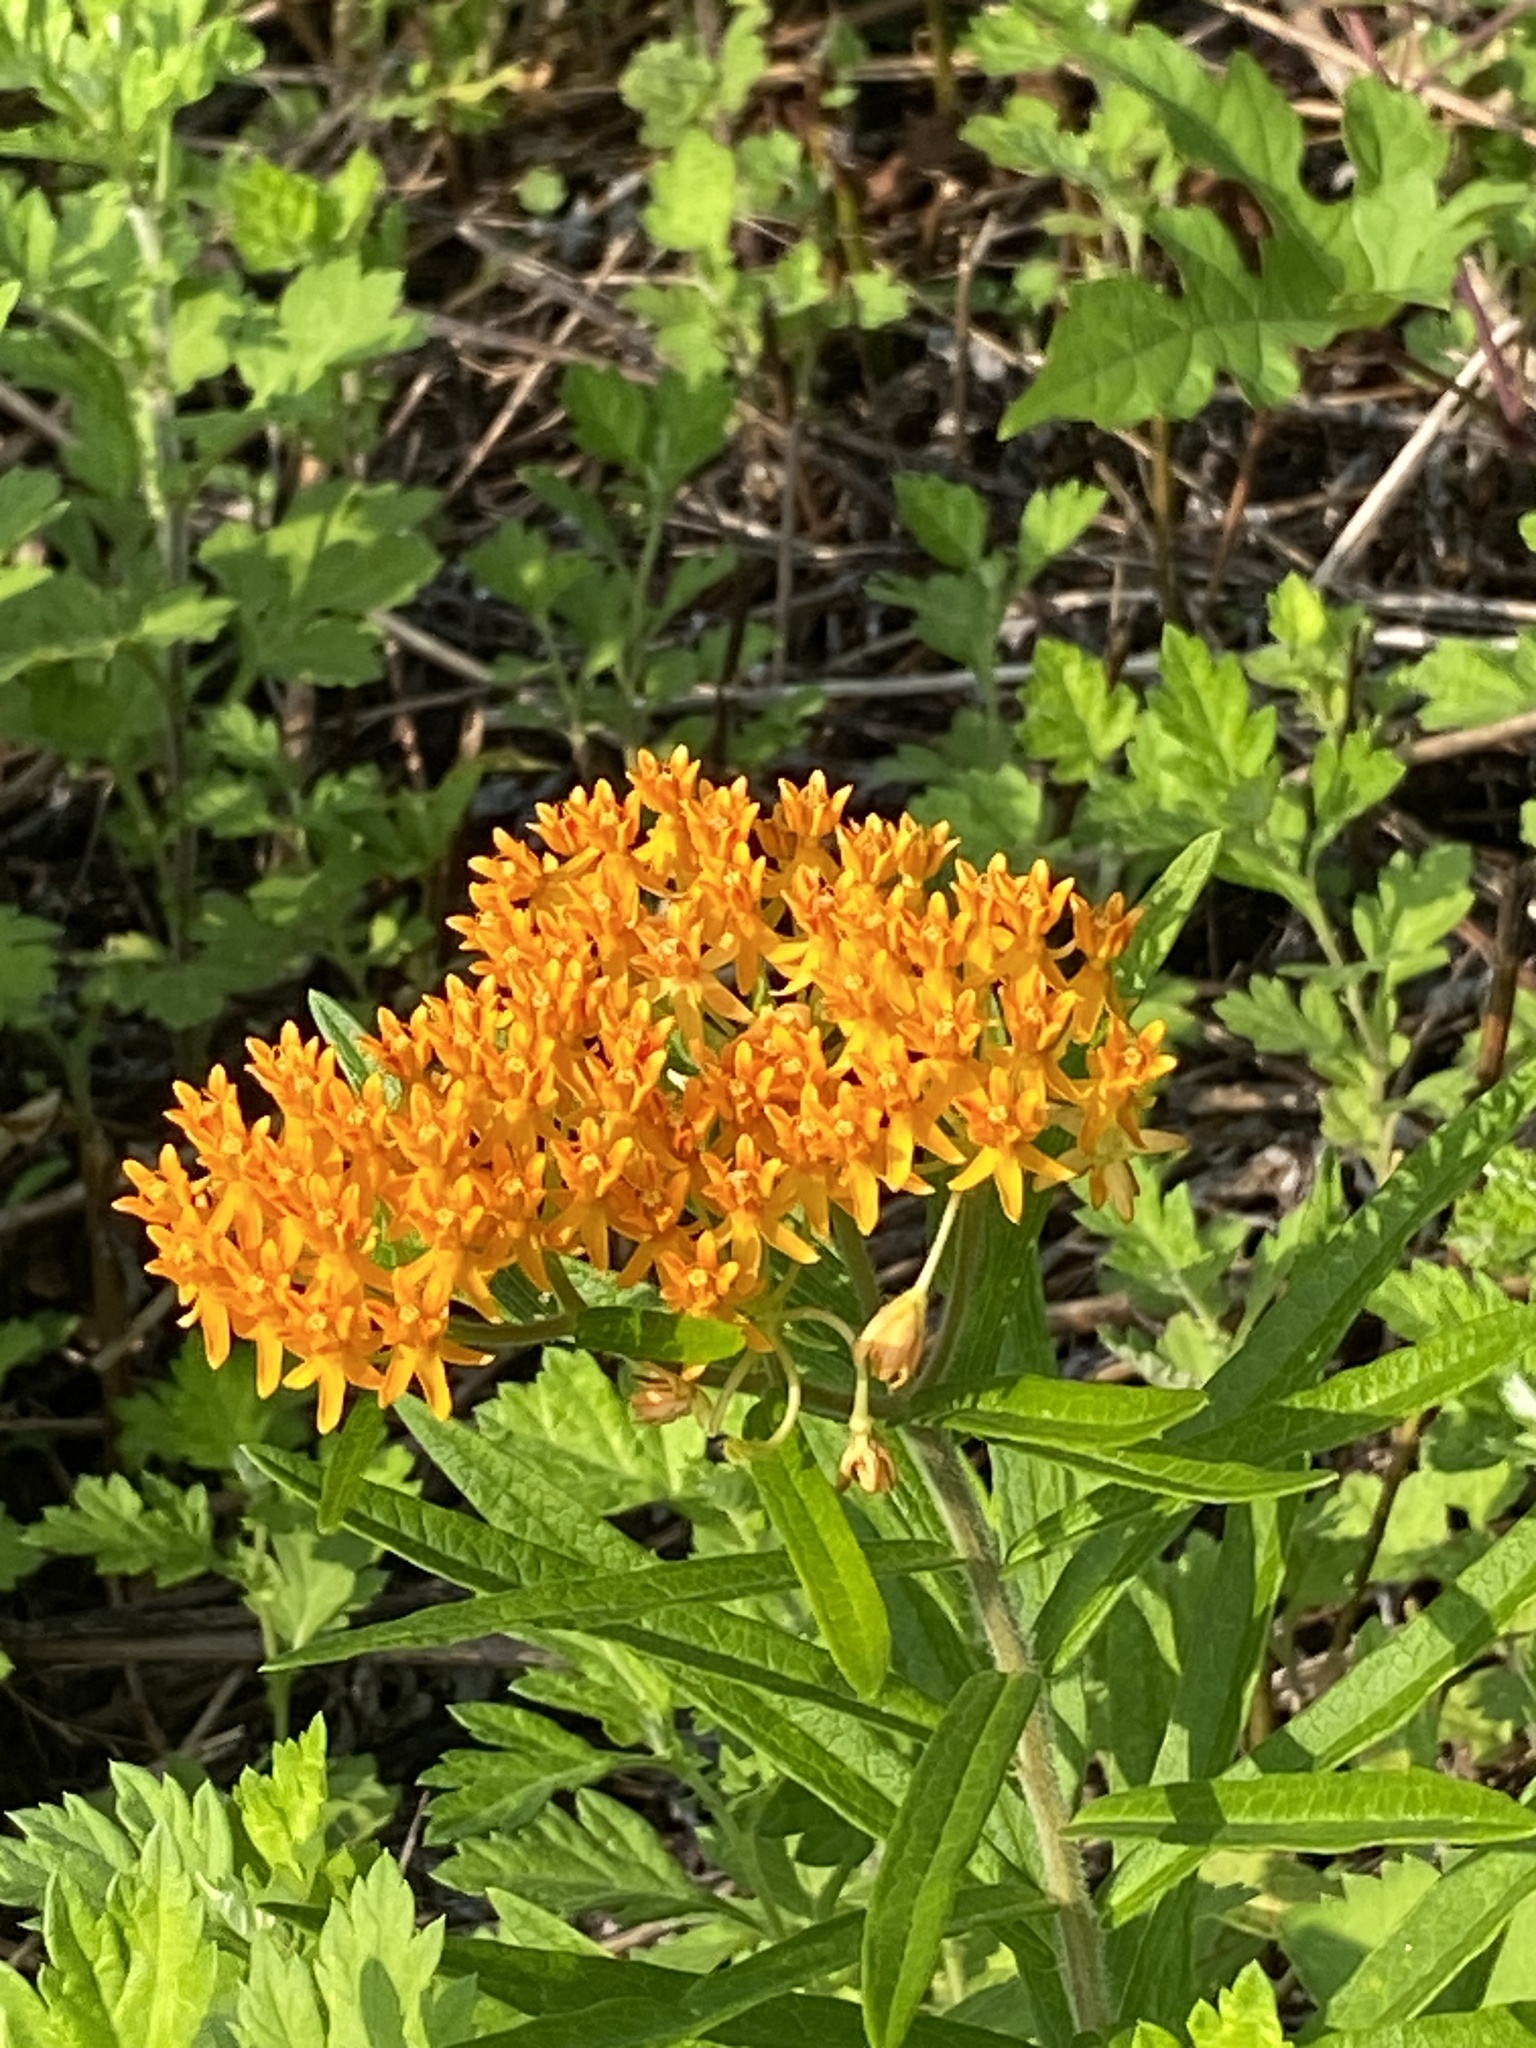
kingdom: Plantae
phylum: Tracheophyta
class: Magnoliopsida
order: Gentianales
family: Apocynaceae
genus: Asclepias
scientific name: Asclepias tuberosa
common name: Butterfly milkweed
